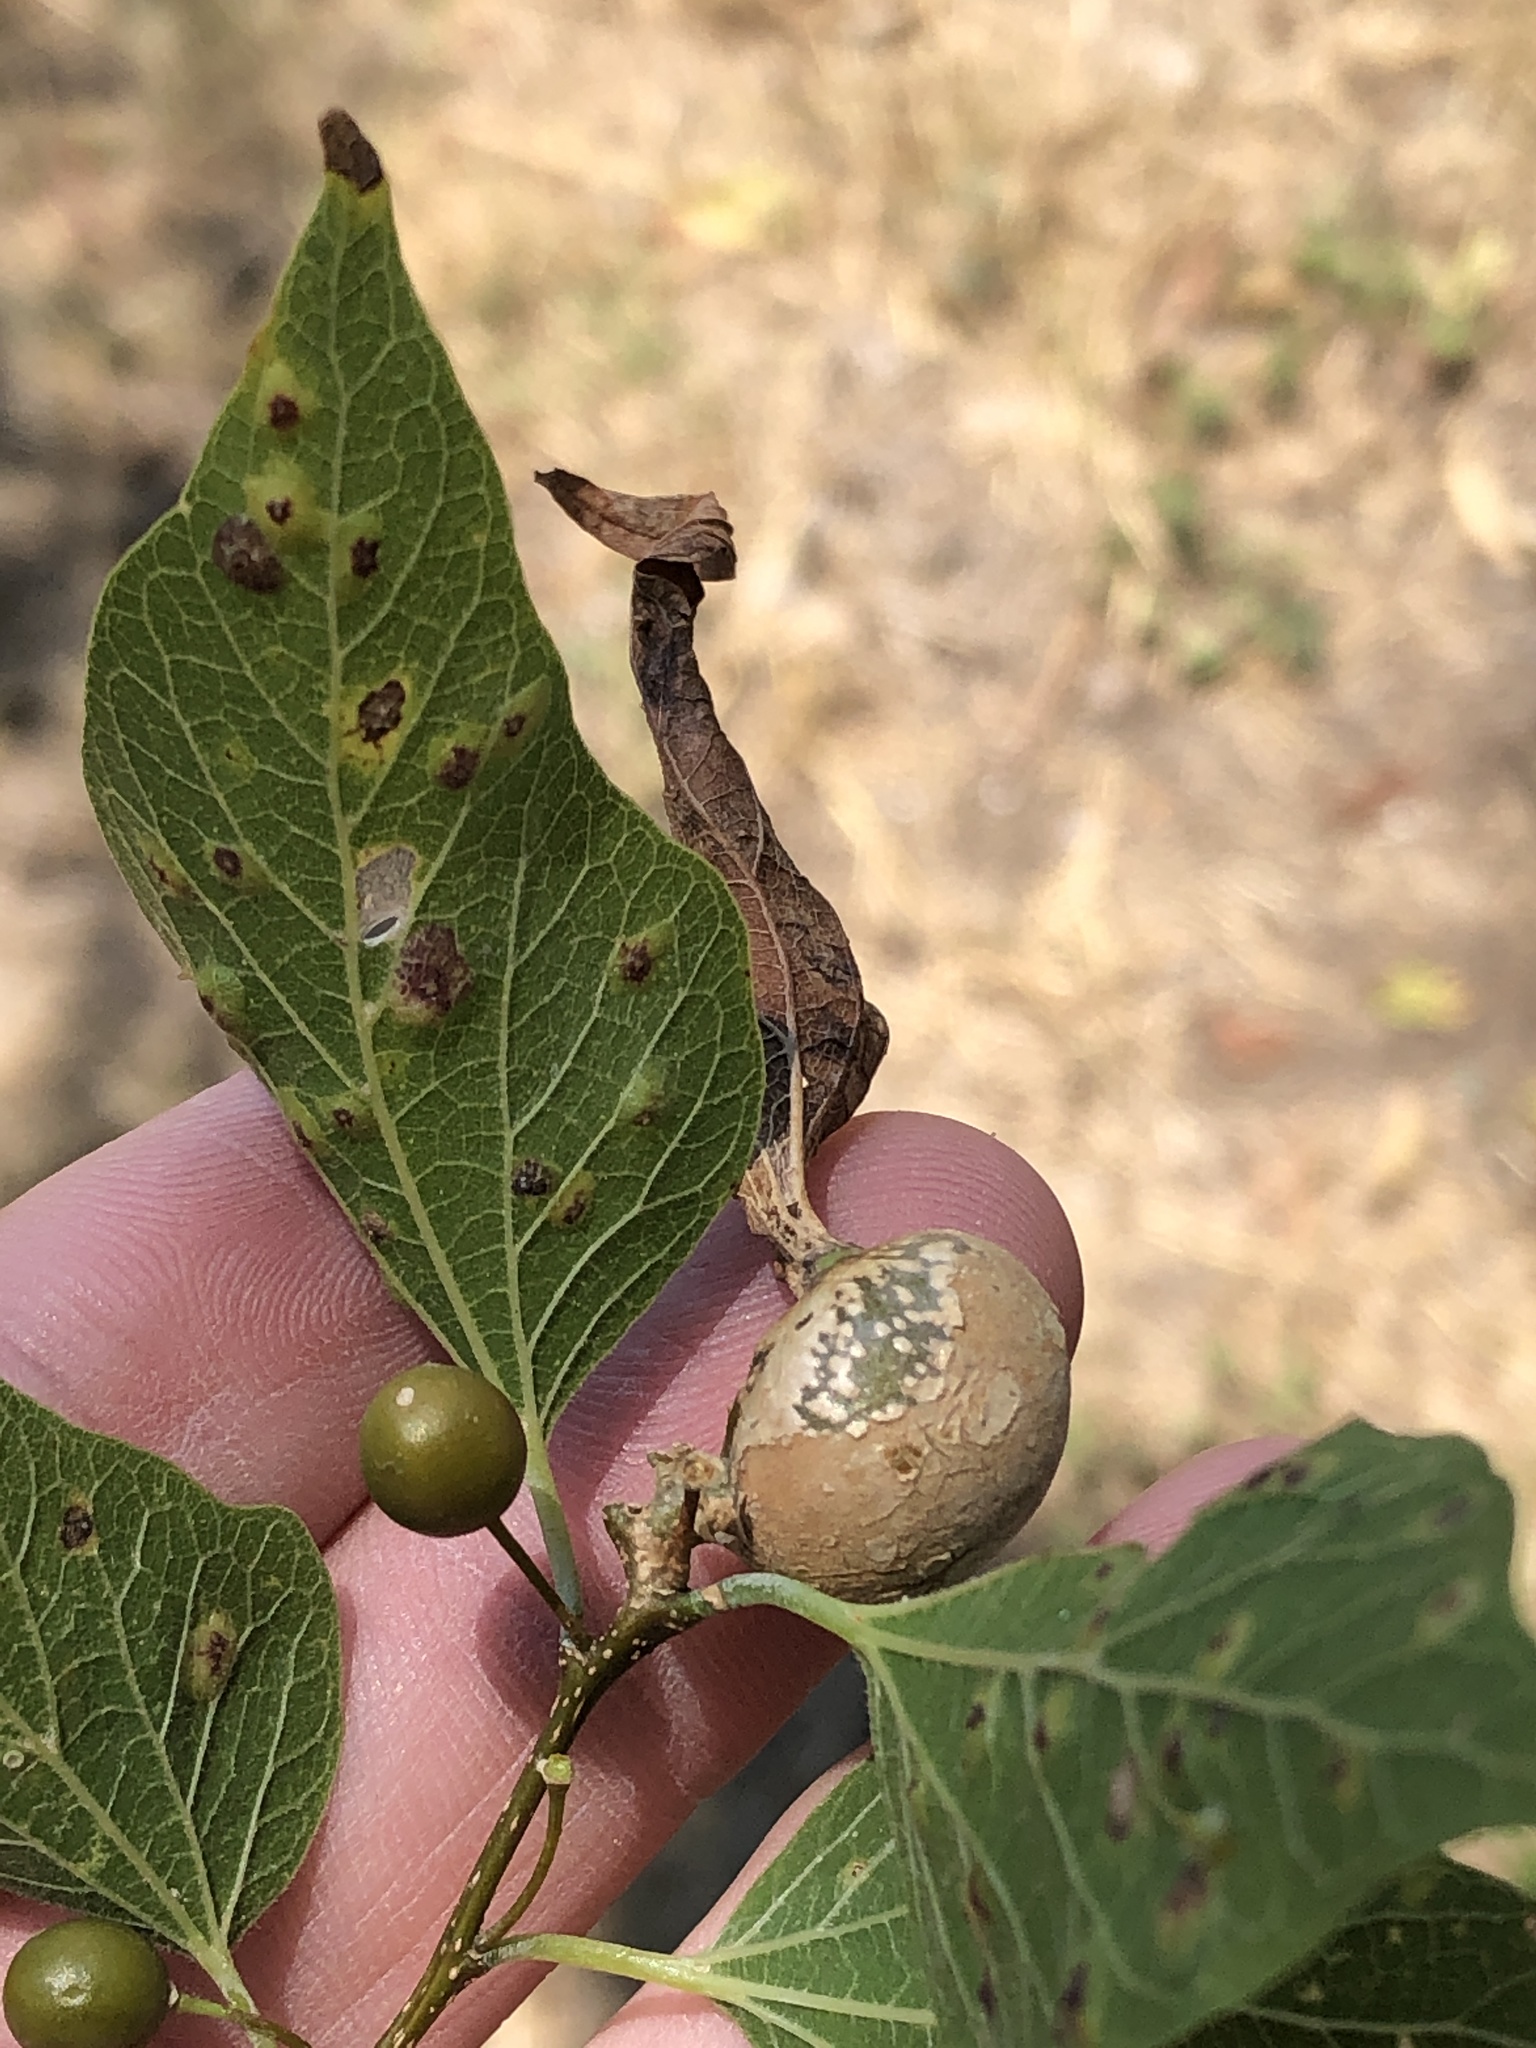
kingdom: Animalia
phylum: Arthropoda
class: Insecta
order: Hemiptera
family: Aphalaridae
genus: Pachypsylla
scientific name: Pachypsylla venusta
